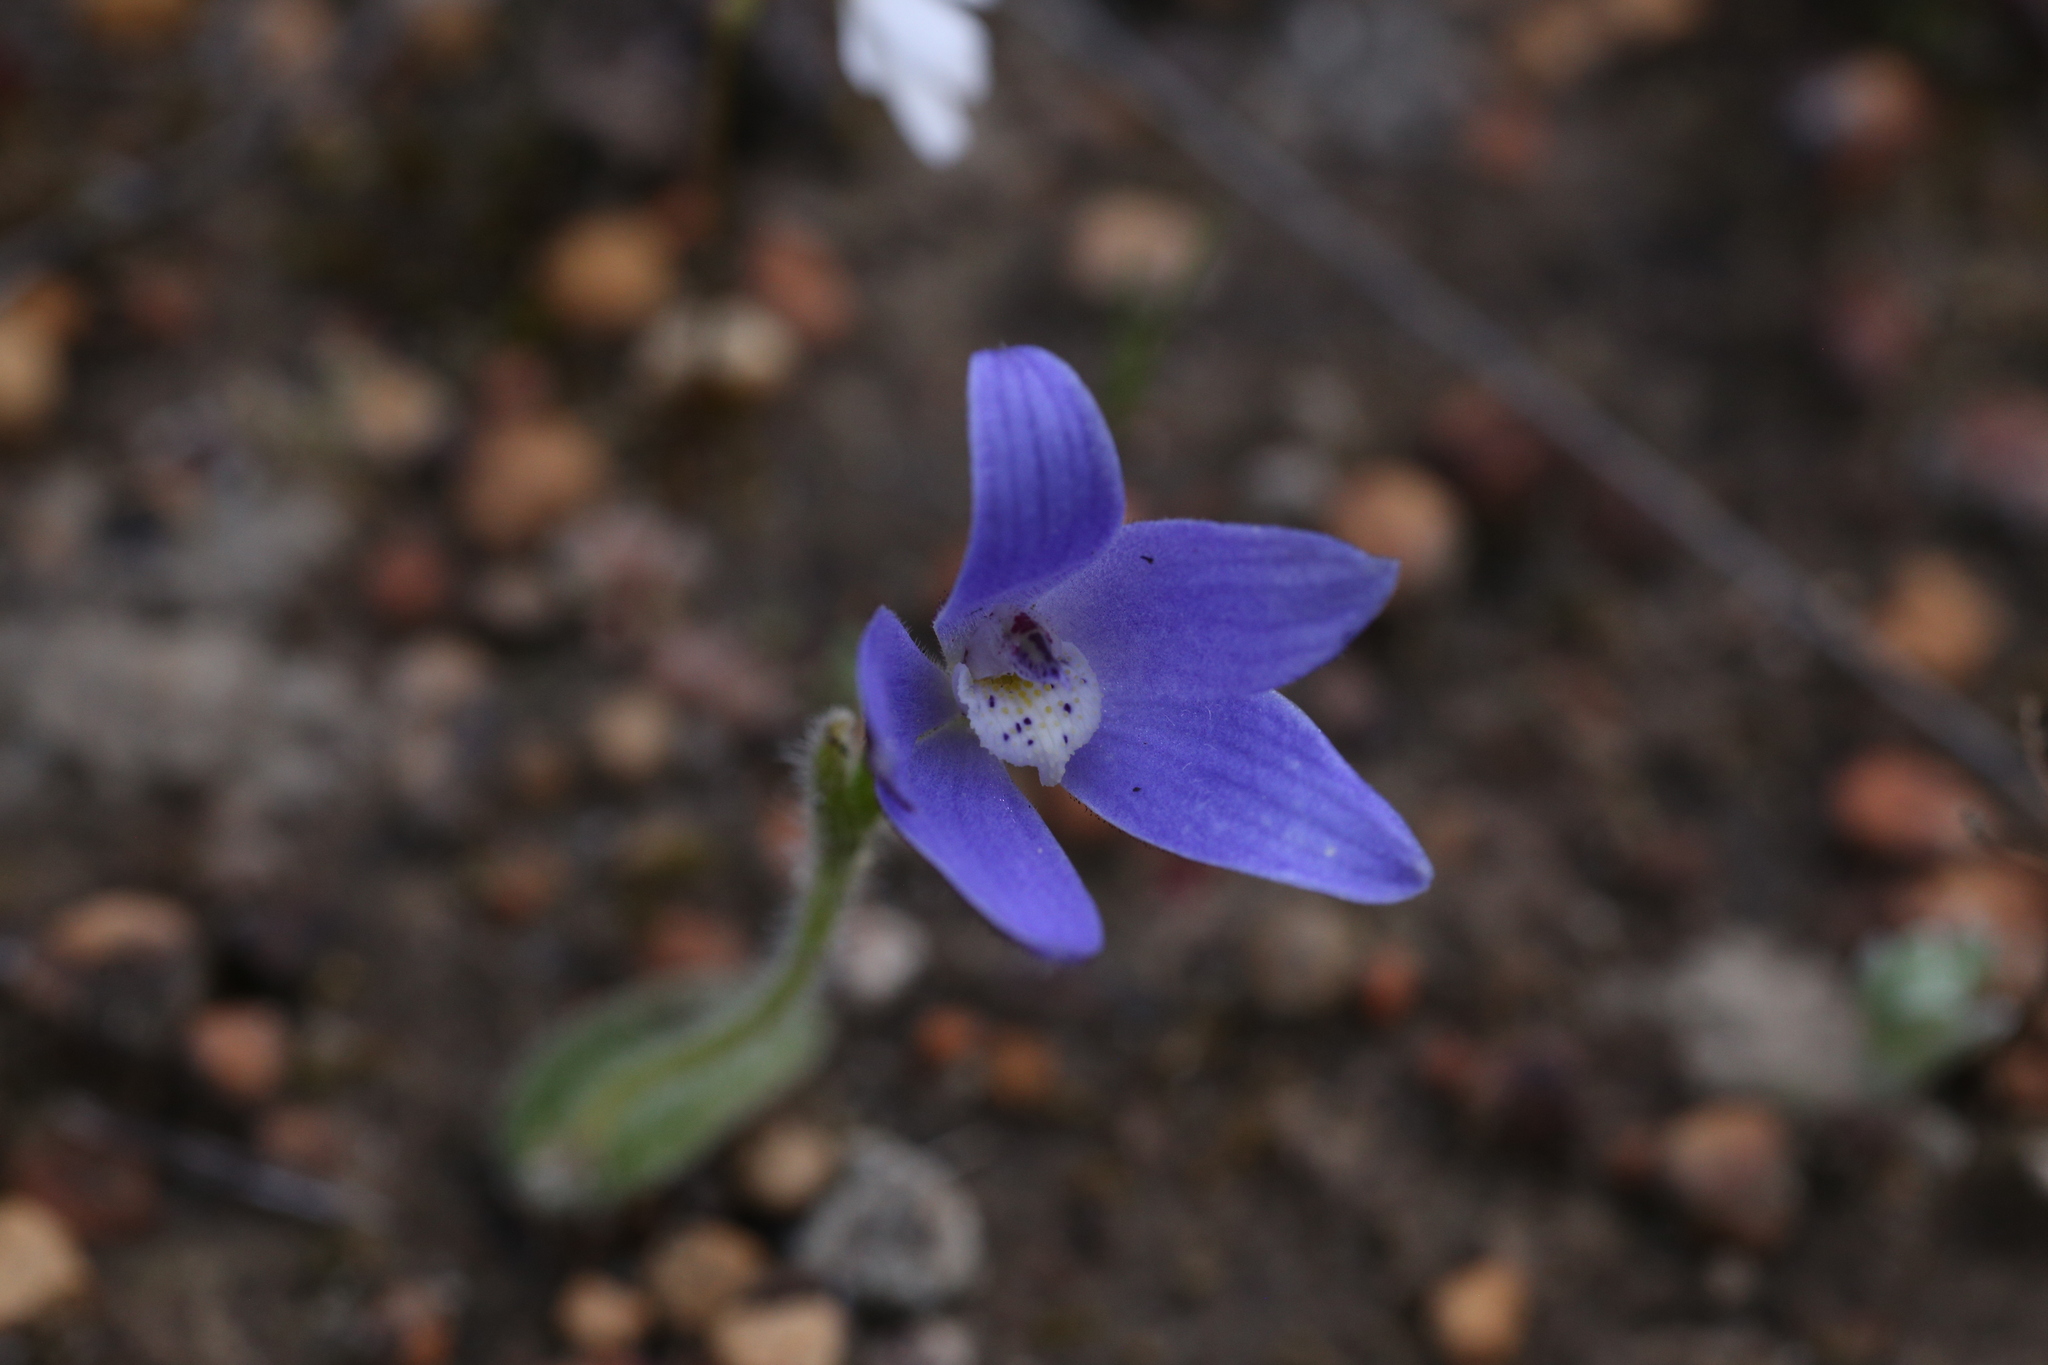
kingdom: Plantae
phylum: Tracheophyta
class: Liliopsida
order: Asparagales
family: Orchidaceae
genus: Caladenia
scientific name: Caladenia gemmata
